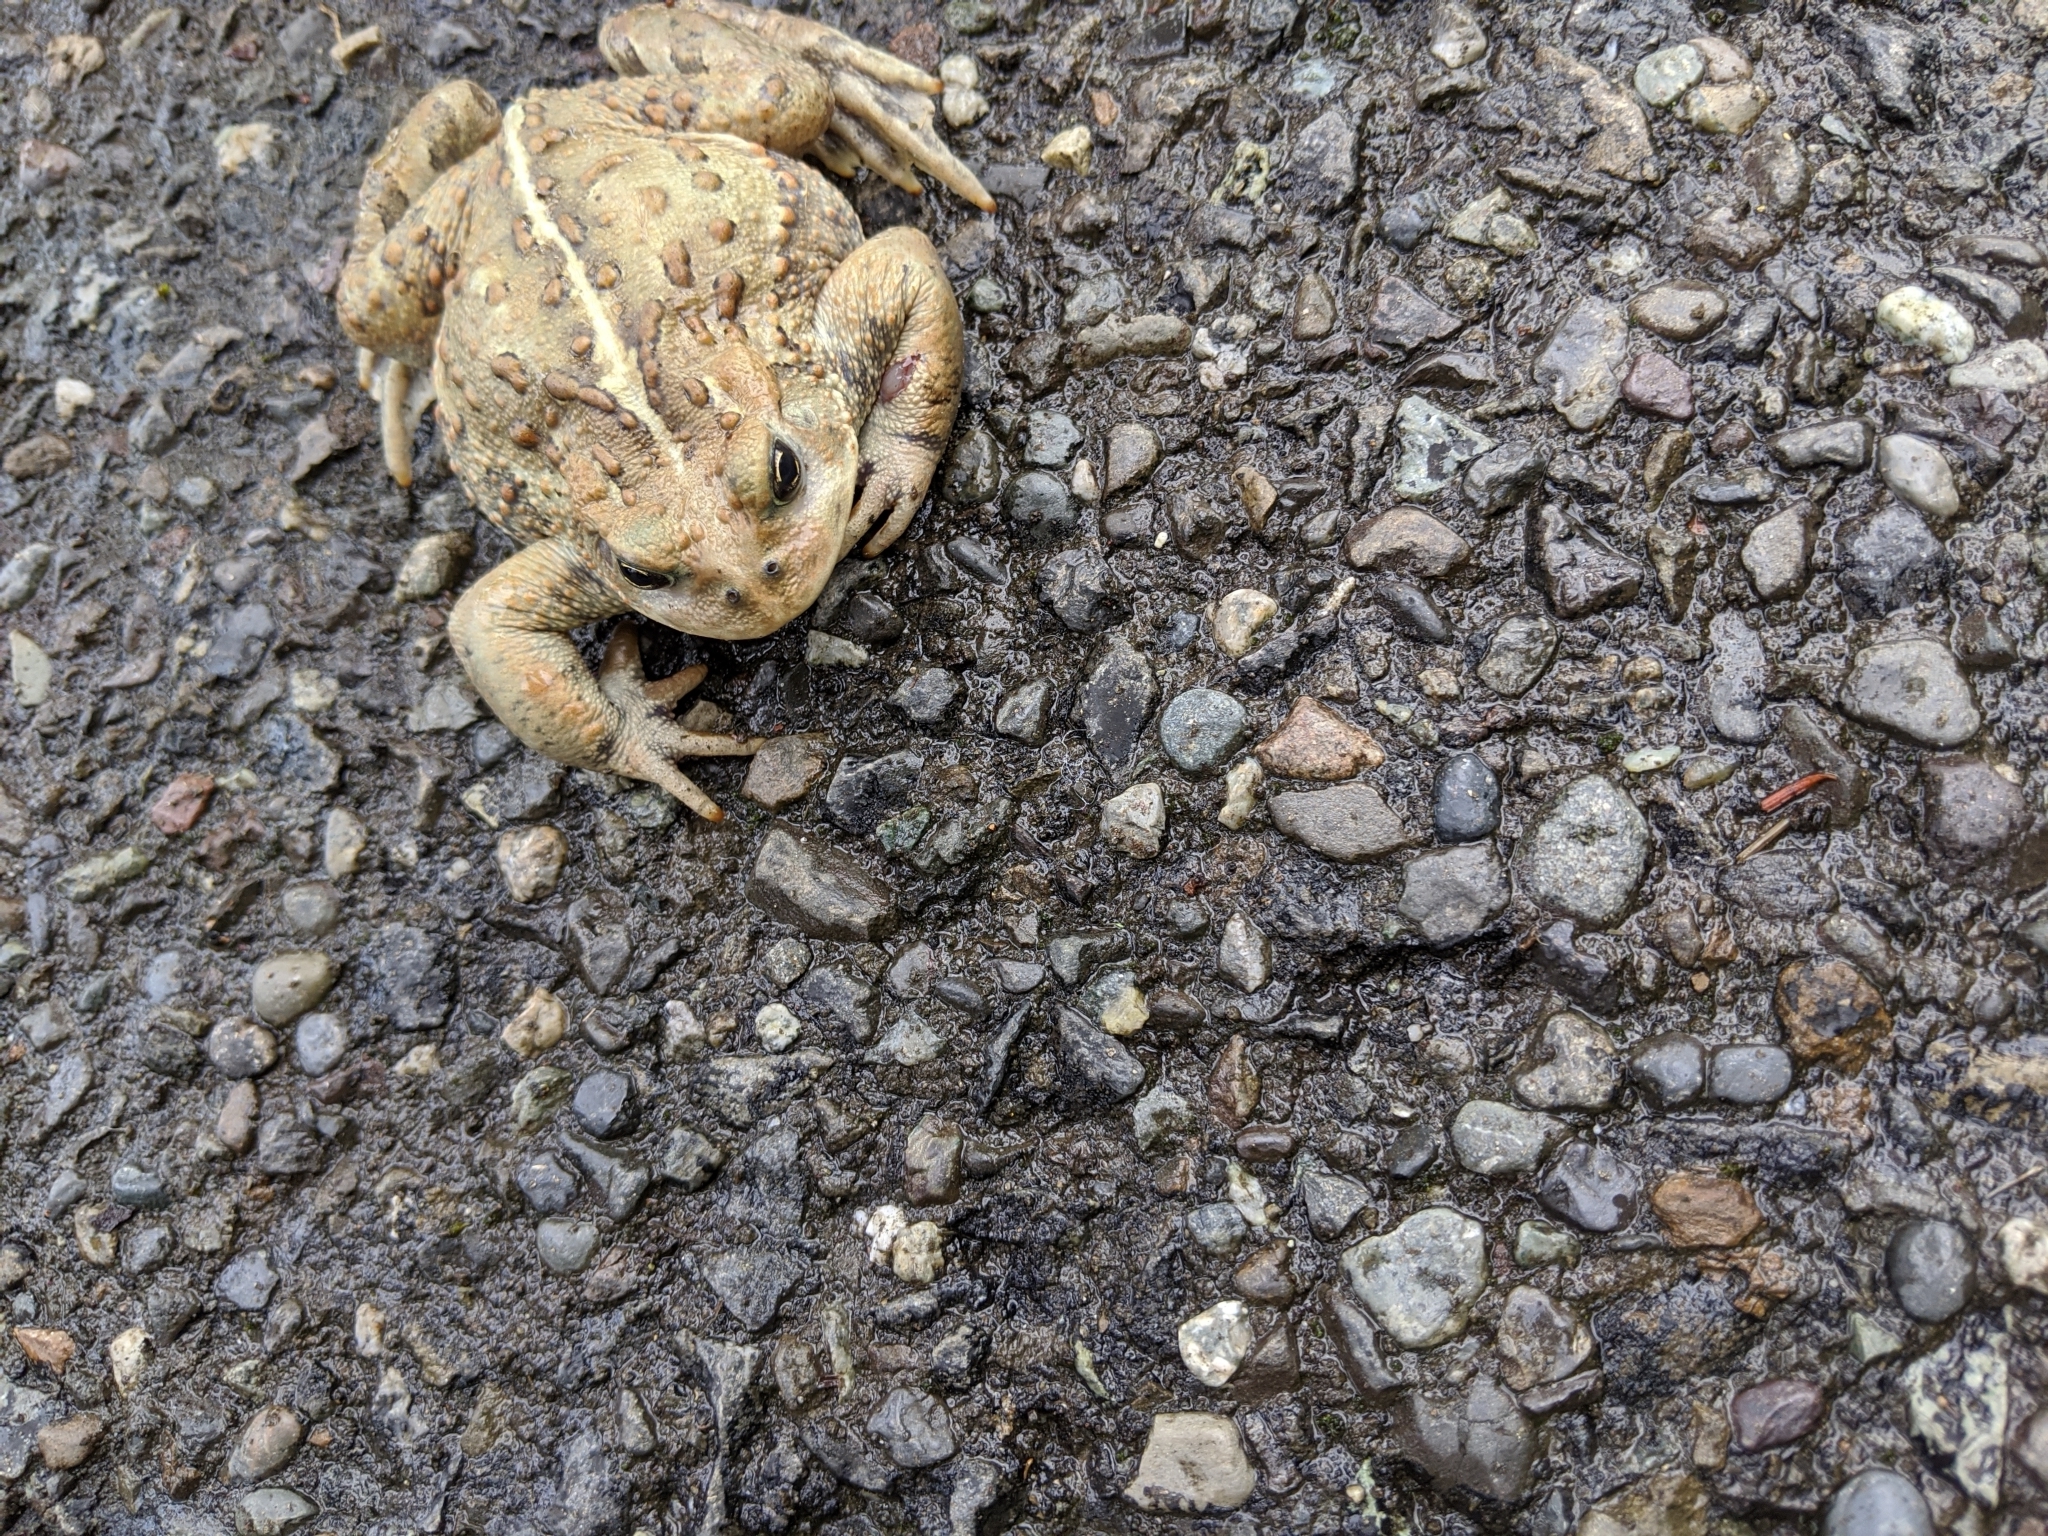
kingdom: Animalia
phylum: Chordata
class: Amphibia
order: Anura
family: Bufonidae
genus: Anaxyrus
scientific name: Anaxyrus boreas
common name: Western toad
